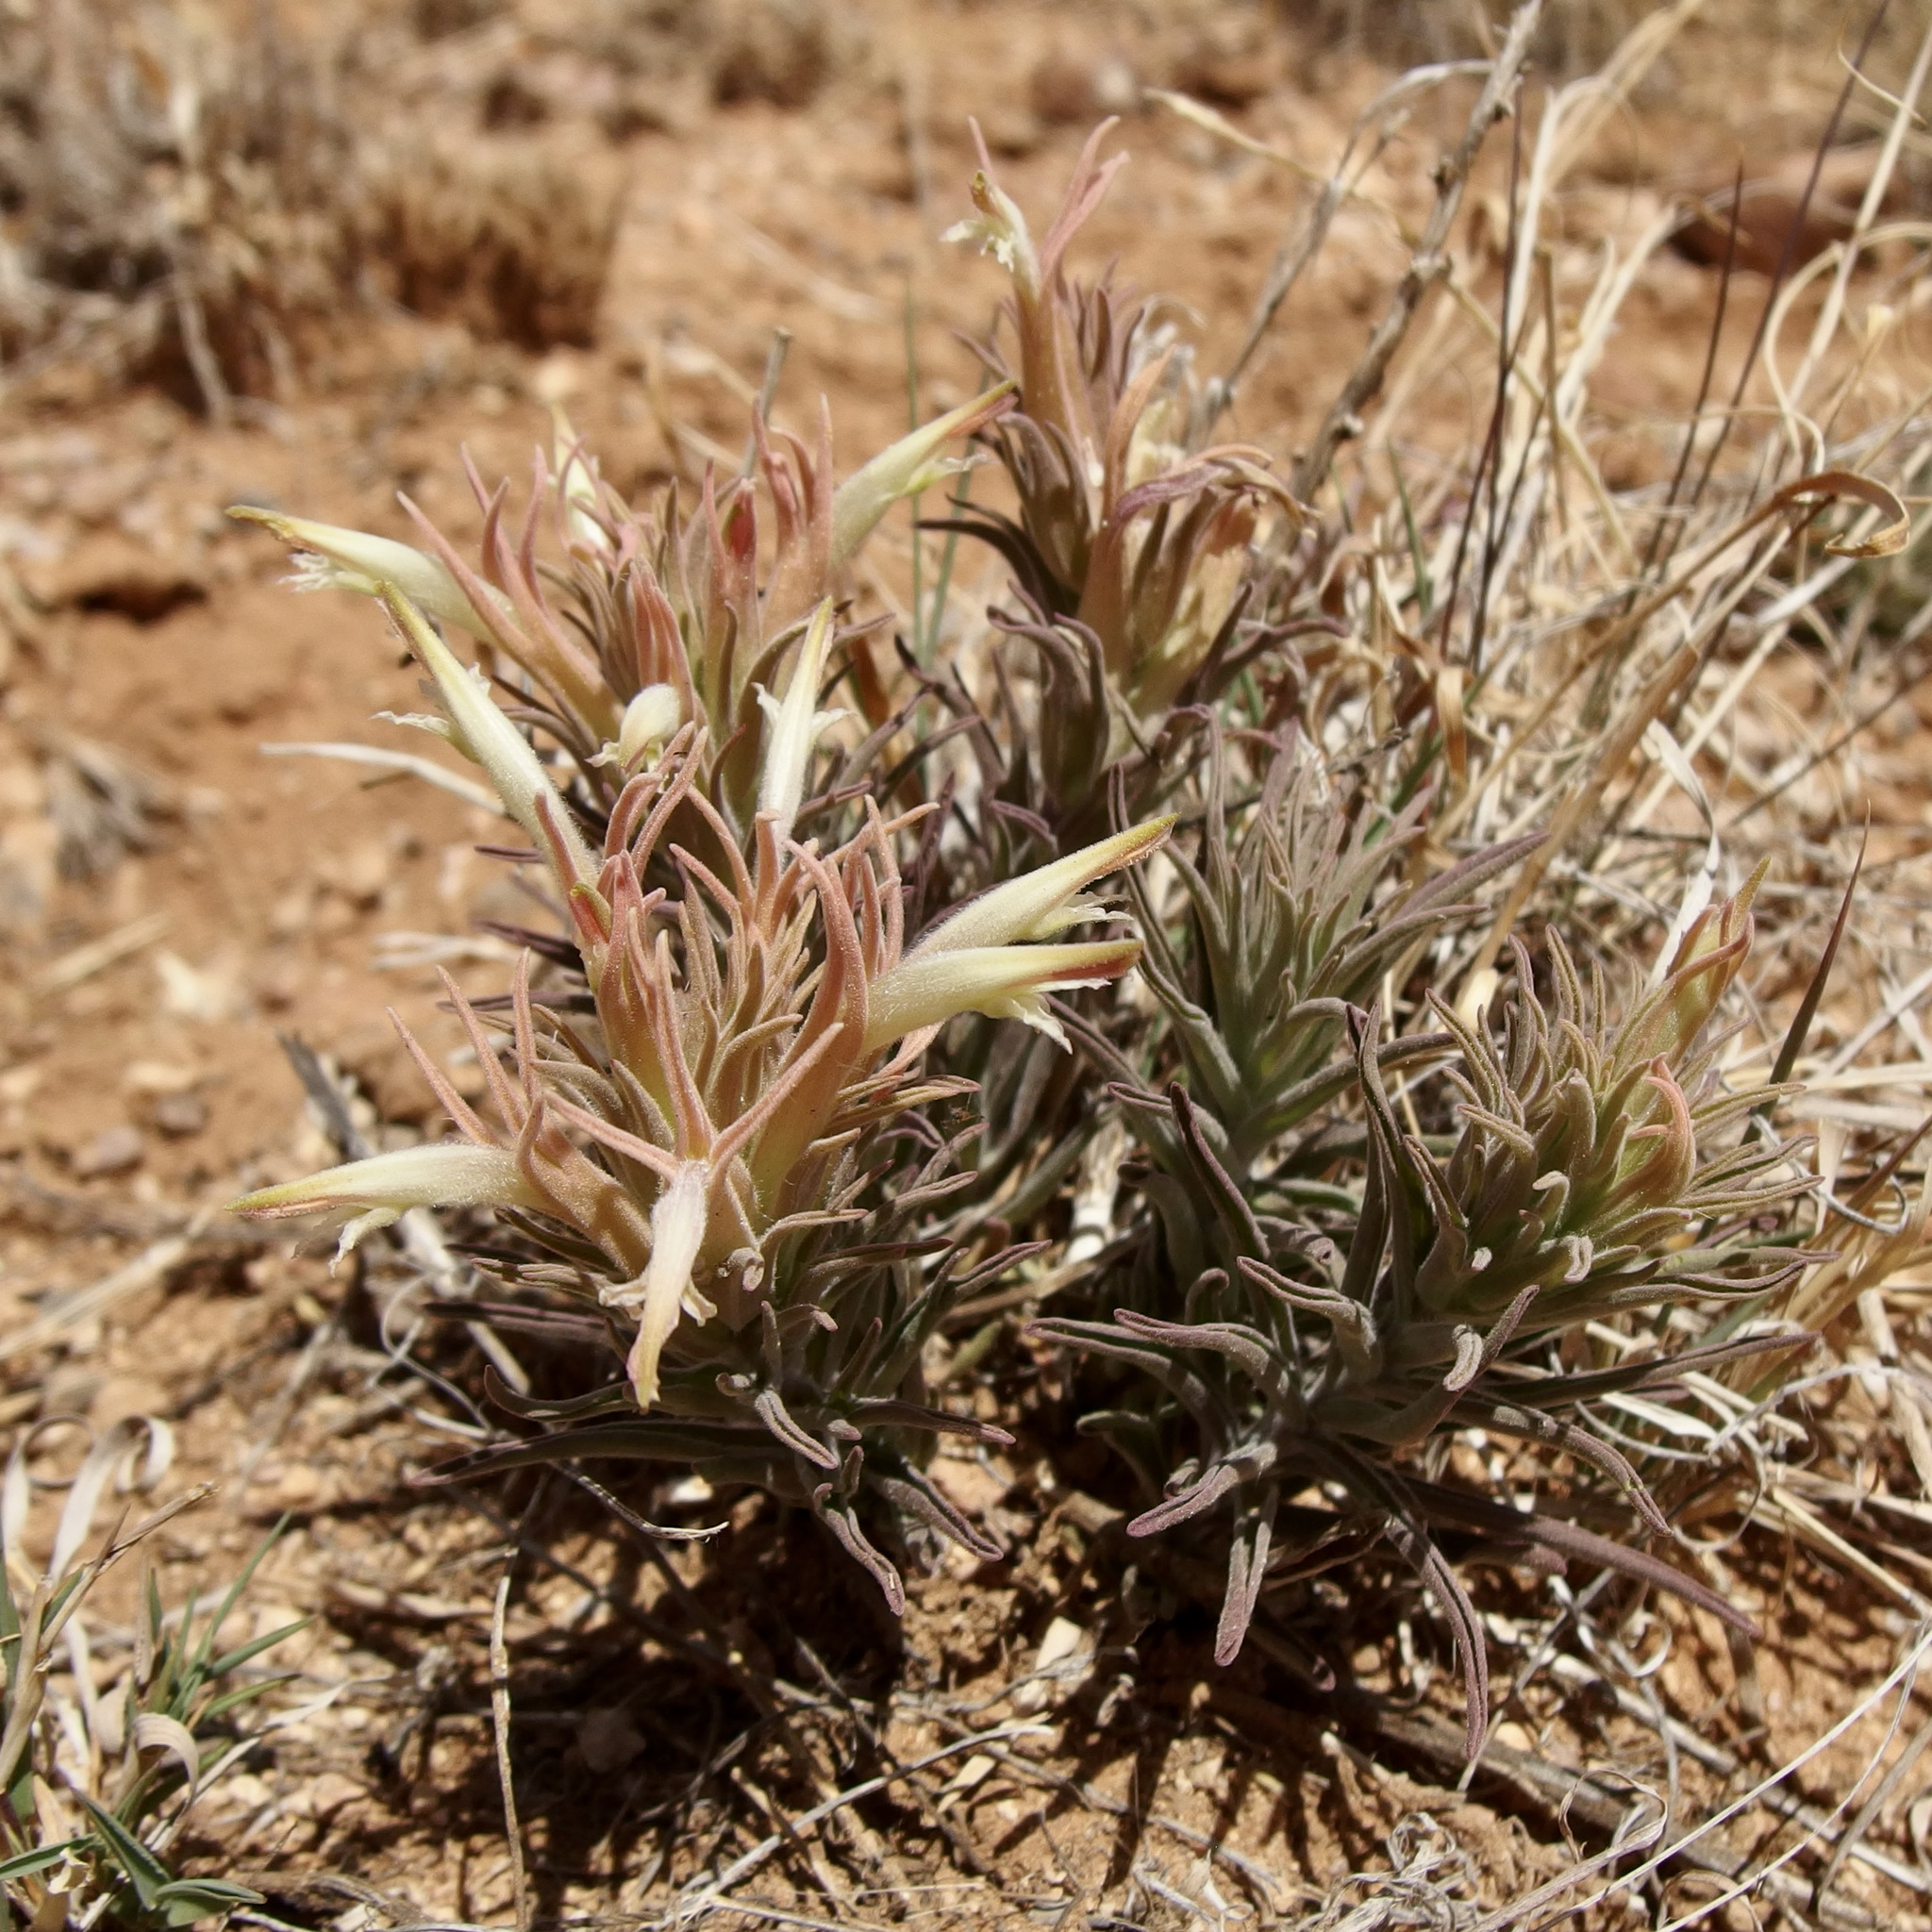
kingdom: Plantae
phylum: Tracheophyta
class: Magnoliopsida
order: Lamiales
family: Orobanchaceae
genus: Castilleja
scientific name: Castilleja sessiliflora
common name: Downy paintbrush
